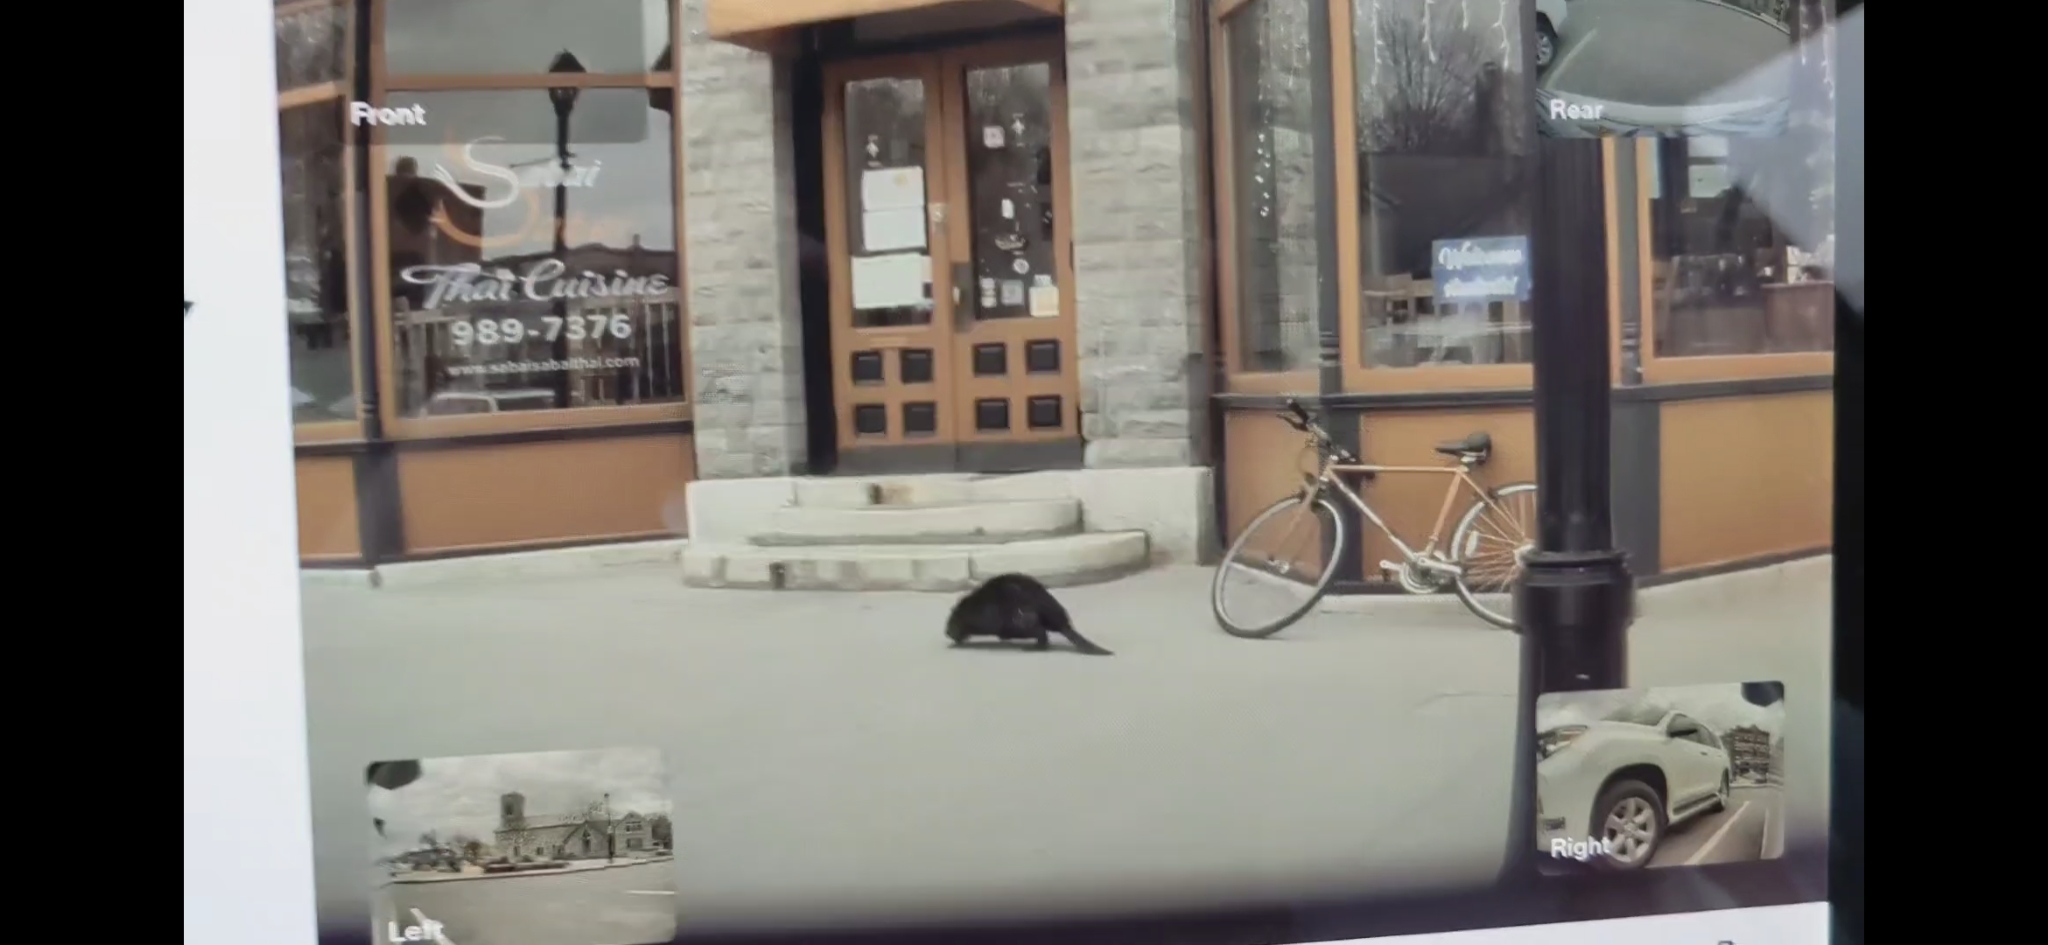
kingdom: Animalia
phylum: Chordata
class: Mammalia
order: Rodentia
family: Castoridae
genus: Castor
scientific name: Castor canadensis
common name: American beaver
